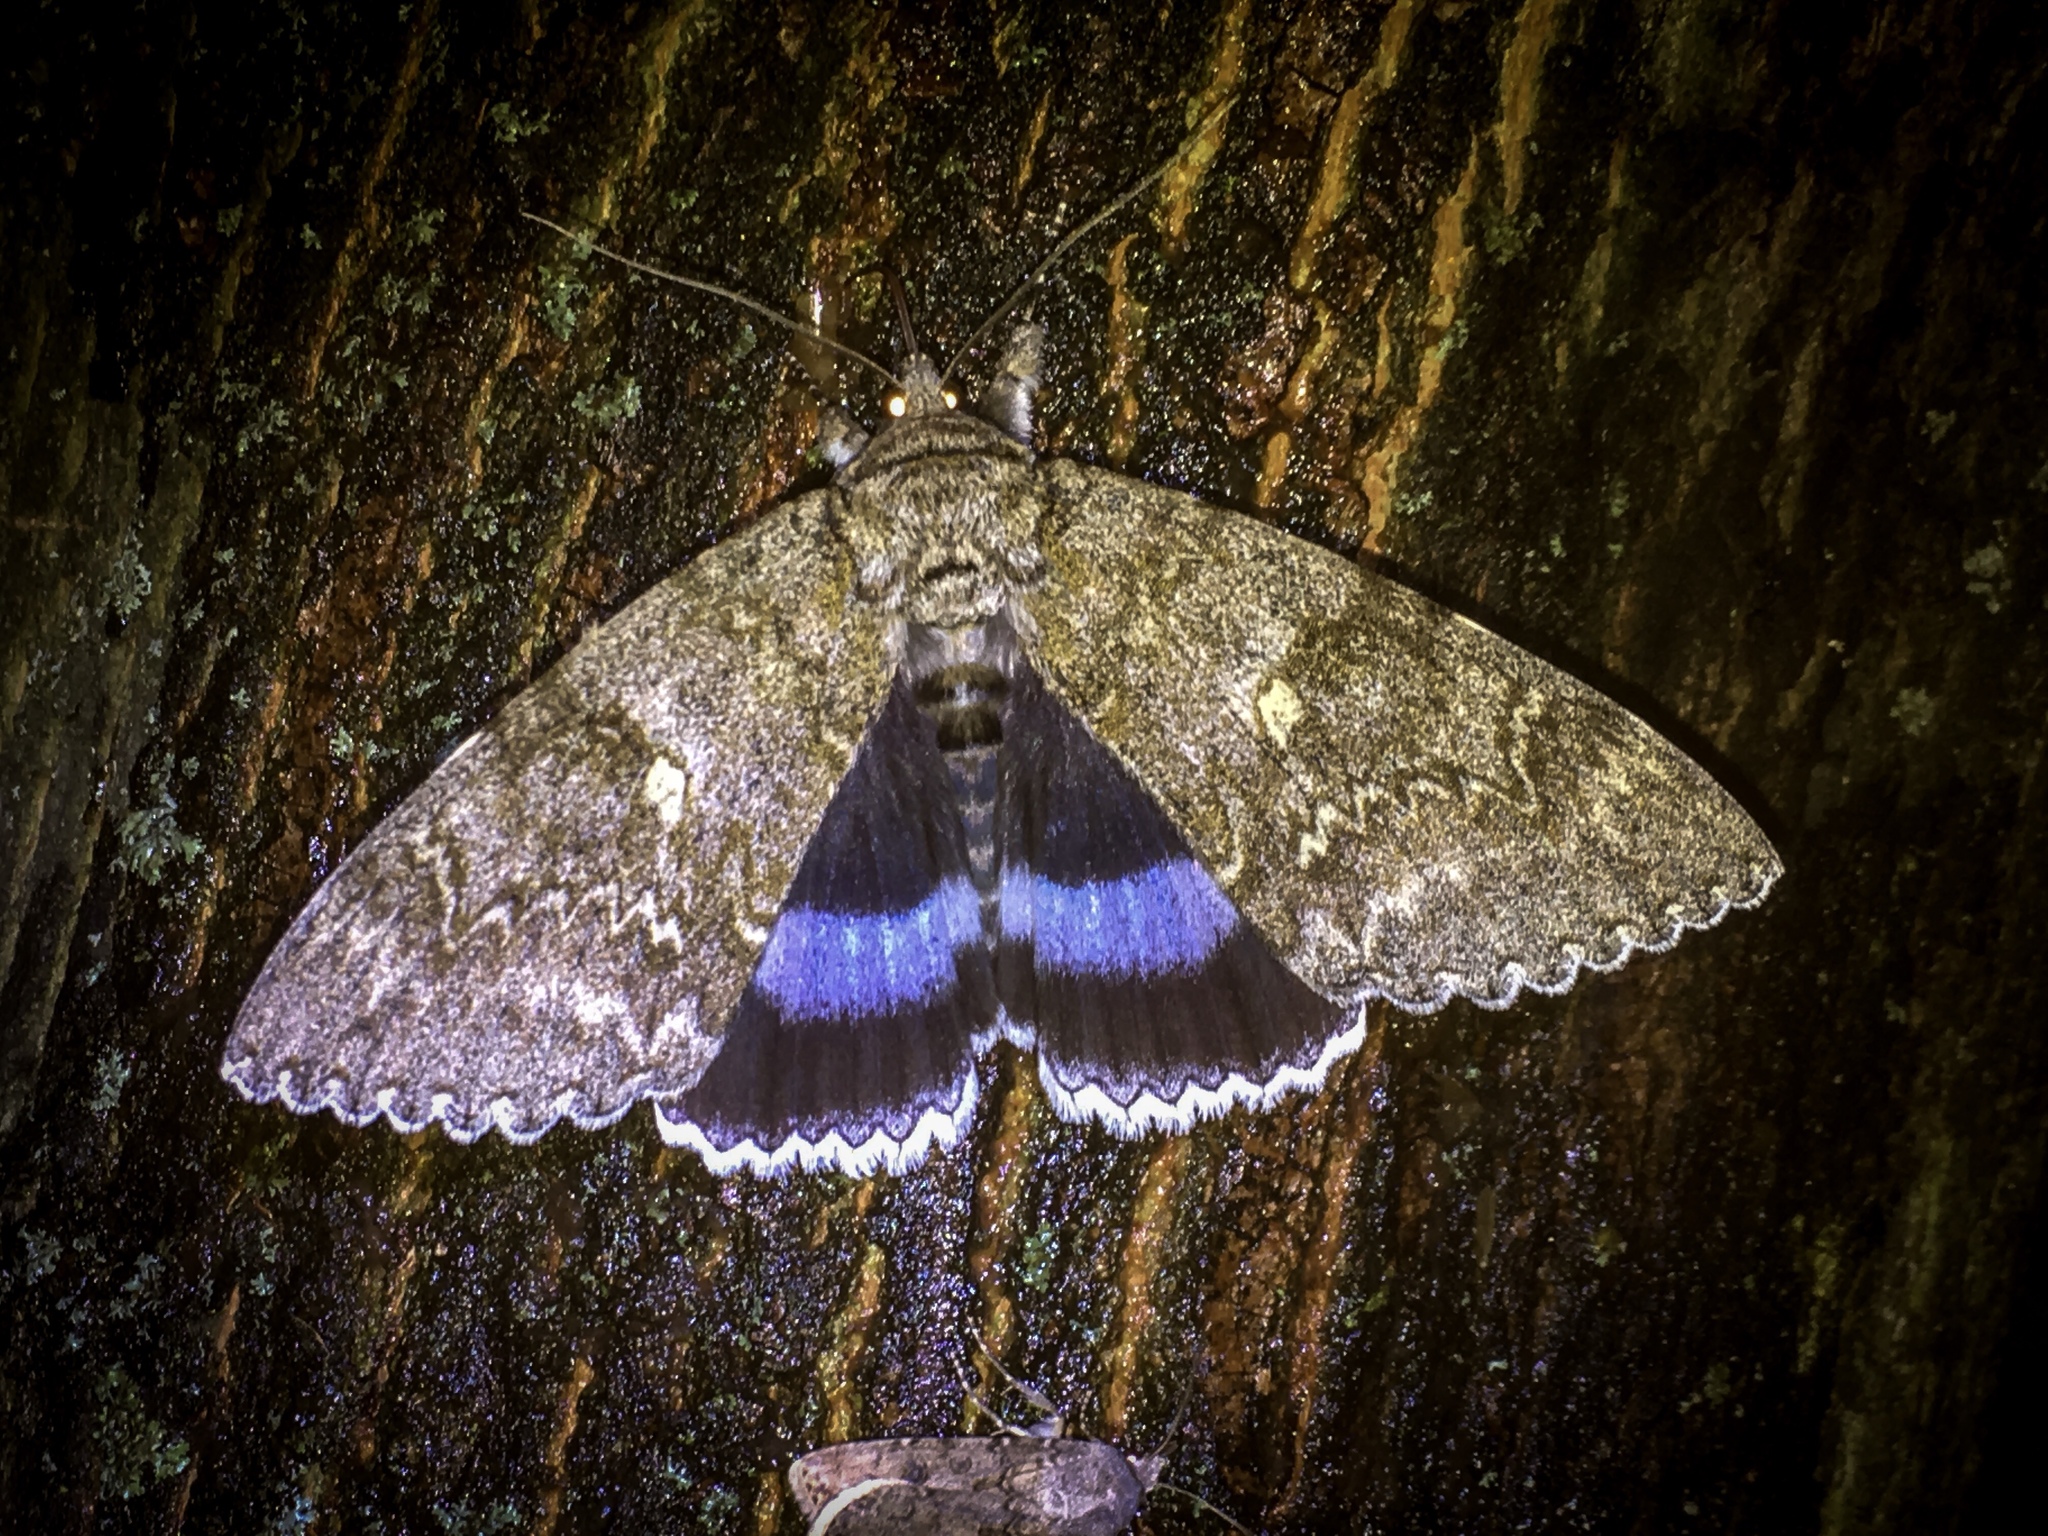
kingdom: Animalia
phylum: Arthropoda
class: Insecta
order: Lepidoptera
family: Erebidae
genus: Catocala
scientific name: Catocala fraxini
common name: Clifden nonpareil
